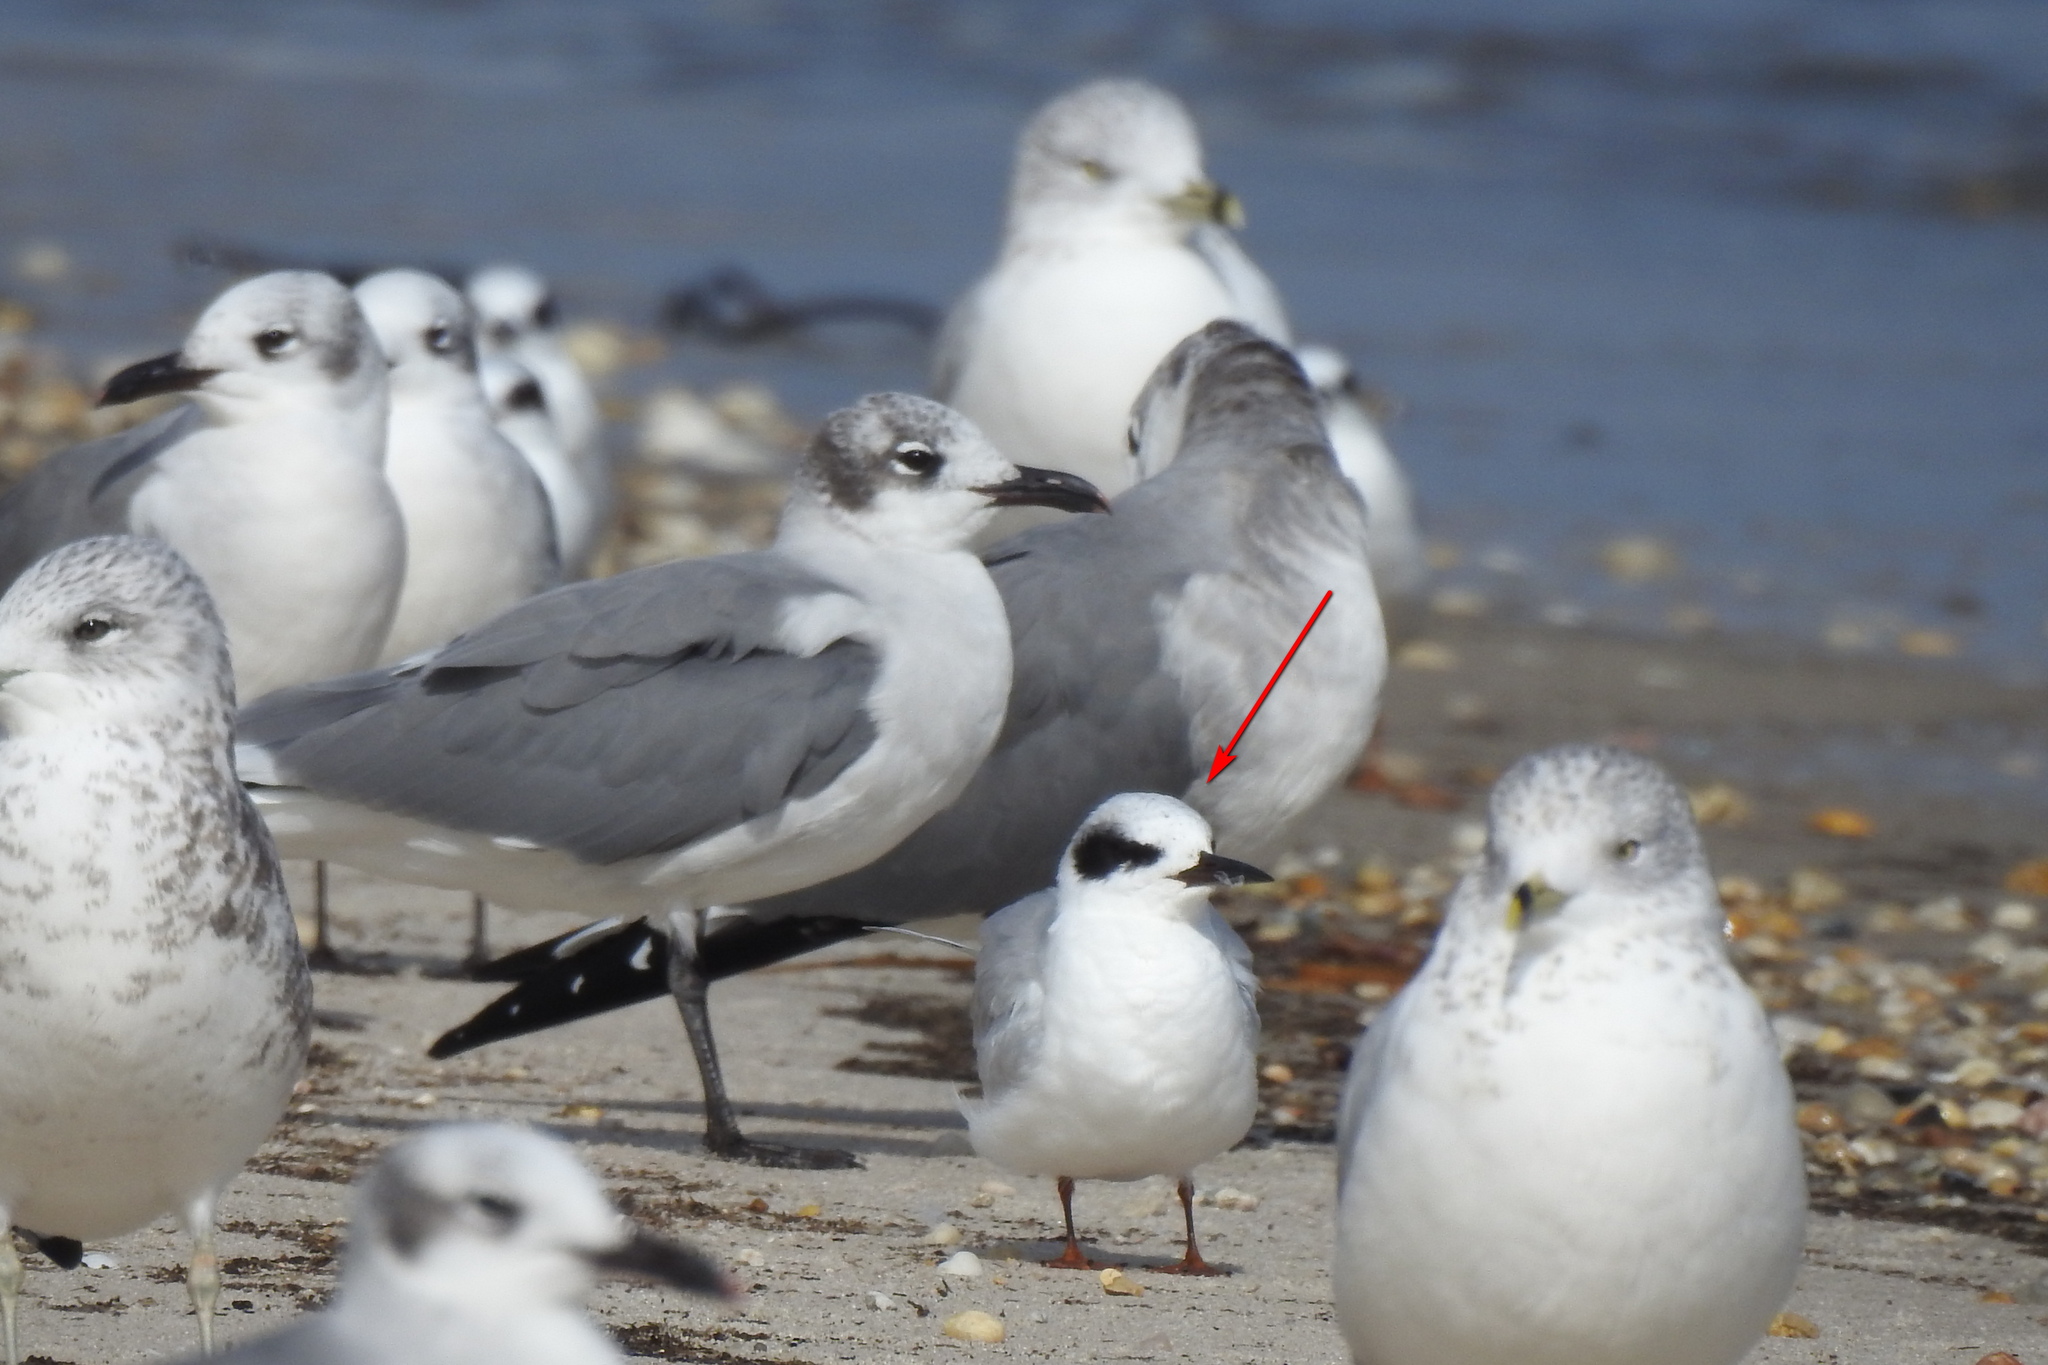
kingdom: Animalia
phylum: Chordata
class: Aves
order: Charadriiformes
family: Laridae
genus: Sterna
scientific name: Sterna forsteri
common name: Forster's tern
